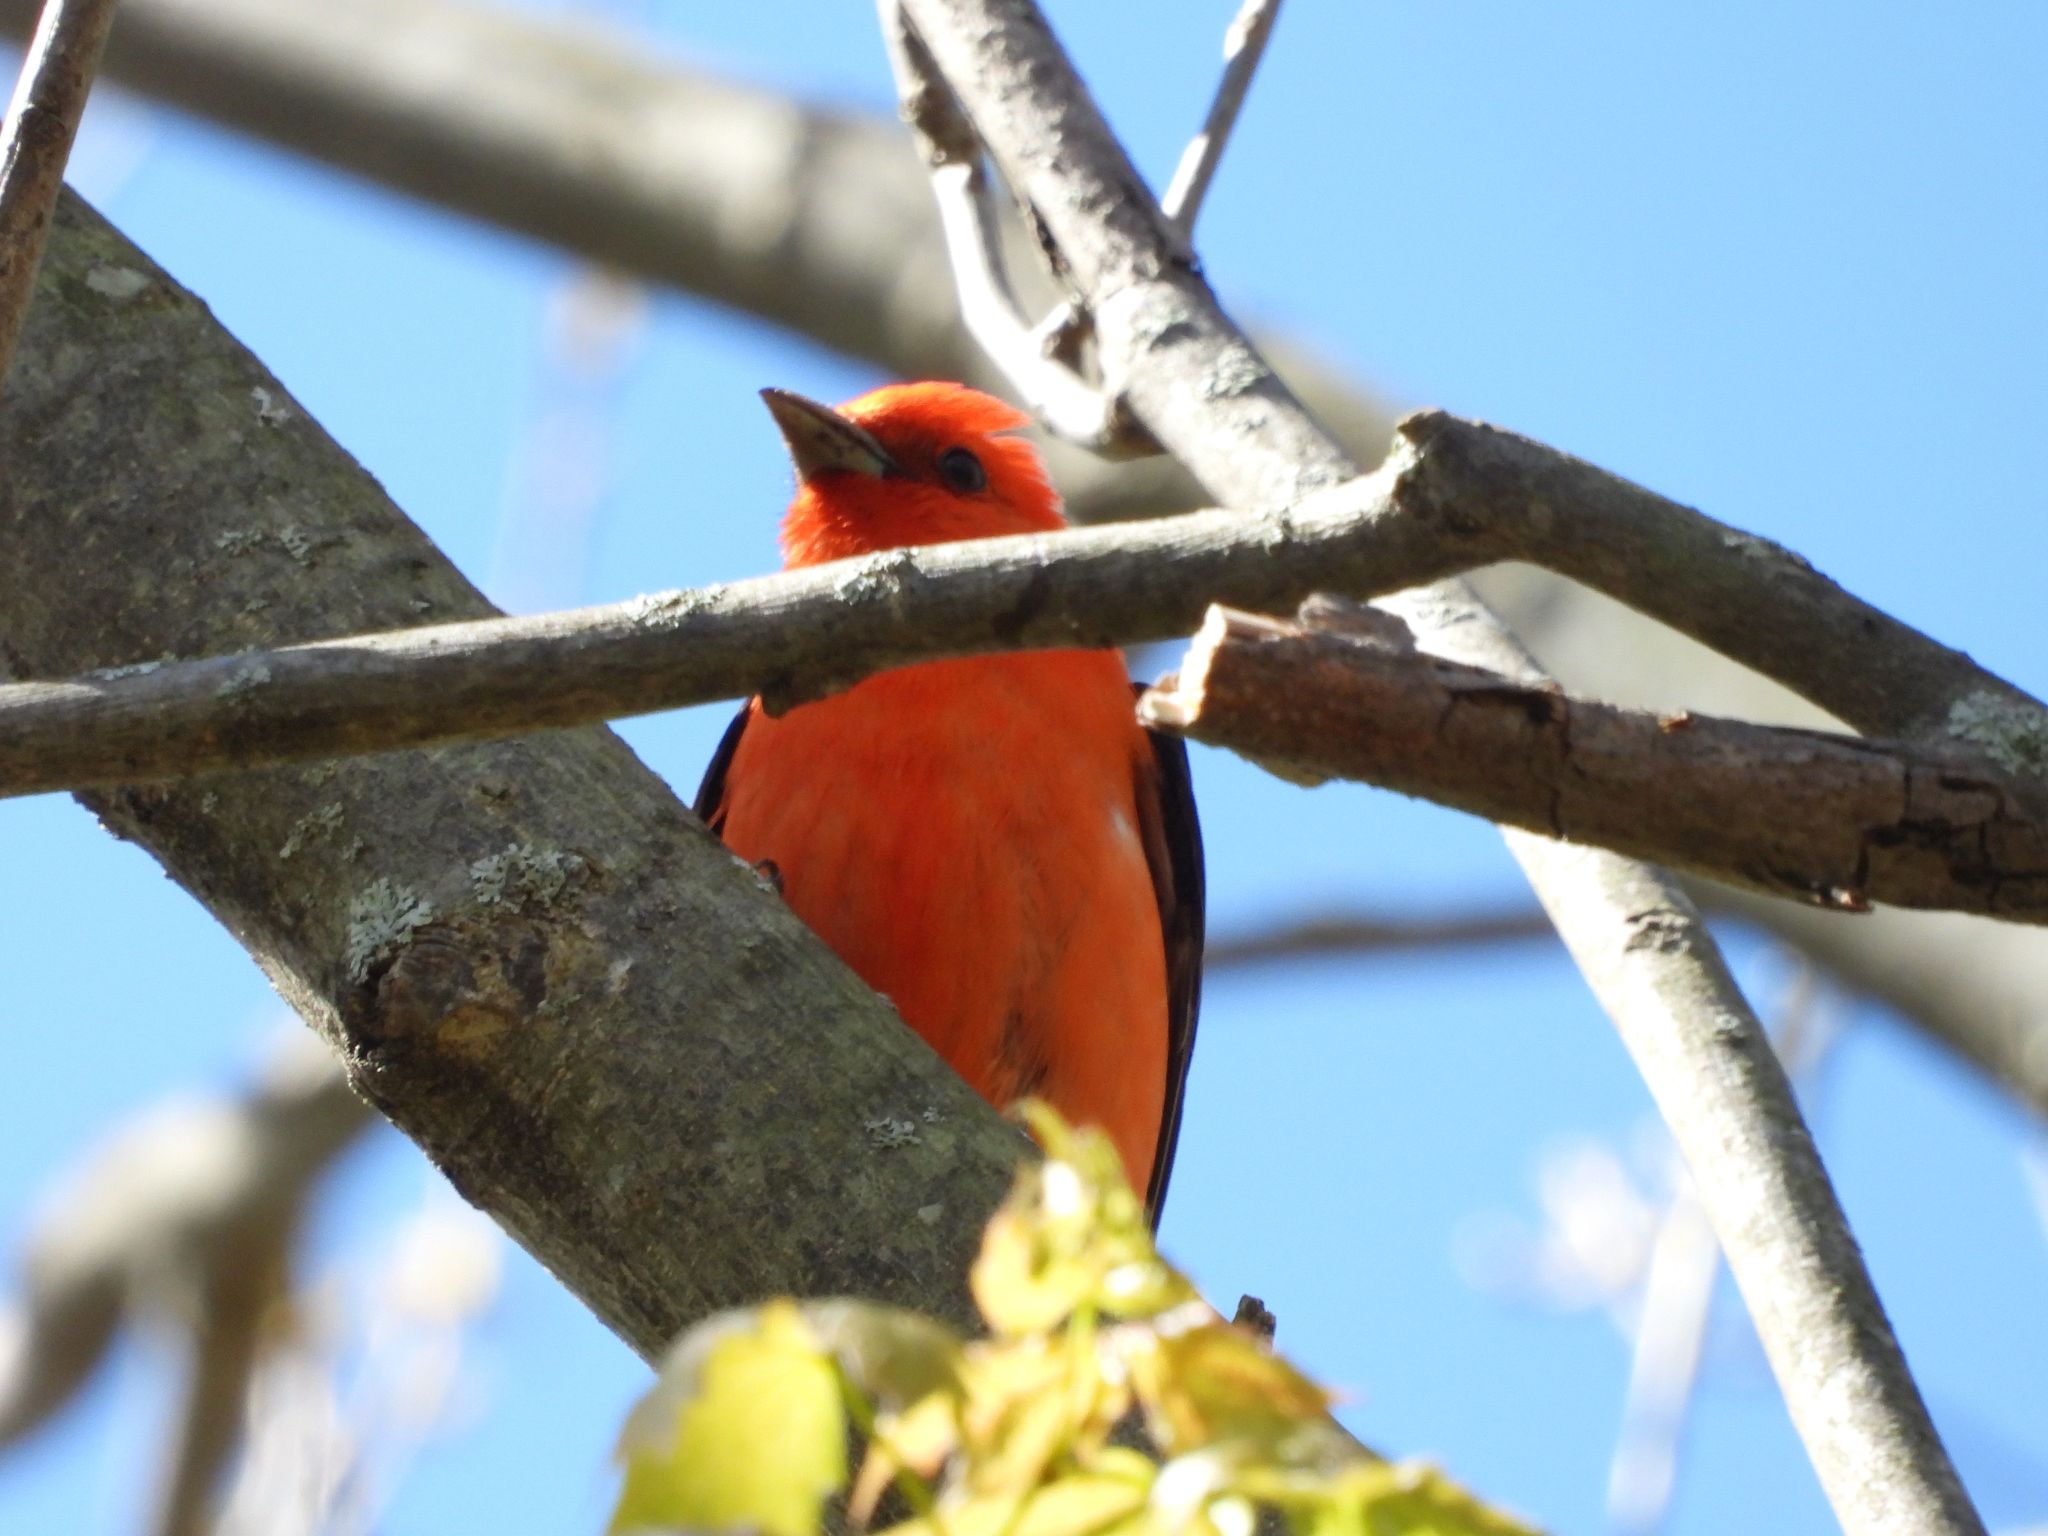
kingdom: Animalia
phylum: Chordata
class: Aves
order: Passeriformes
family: Cardinalidae
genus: Piranga
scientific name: Piranga olivacea
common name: Scarlet tanager
